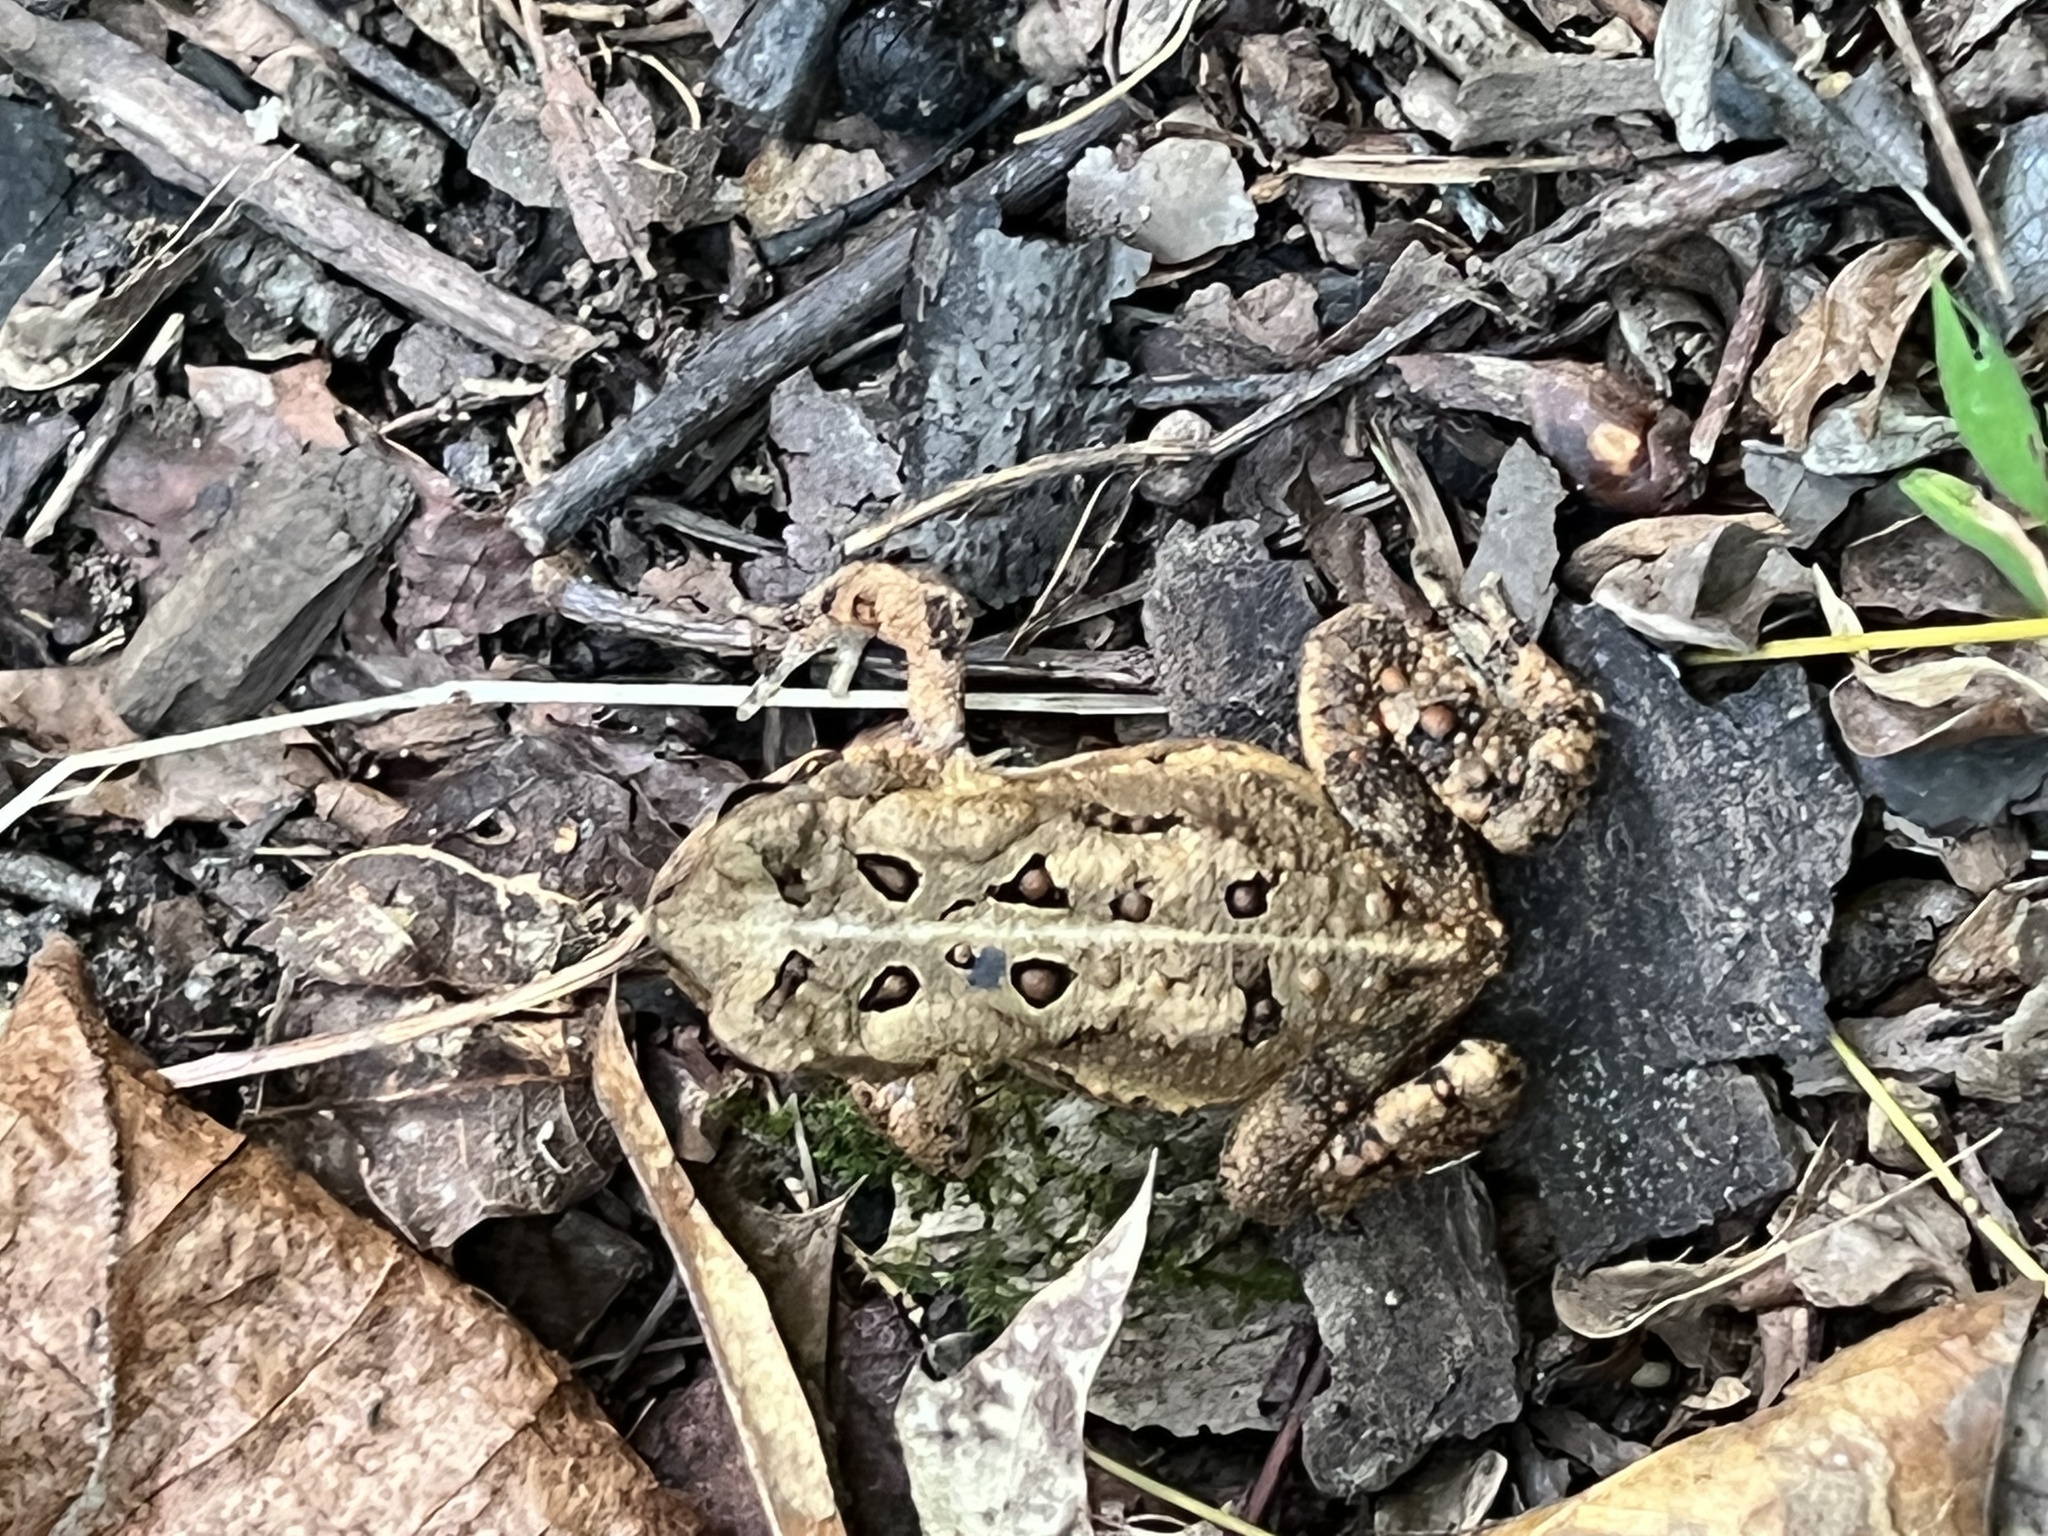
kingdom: Animalia
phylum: Chordata
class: Amphibia
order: Anura
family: Bufonidae
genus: Anaxyrus
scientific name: Anaxyrus americanus
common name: American toad
